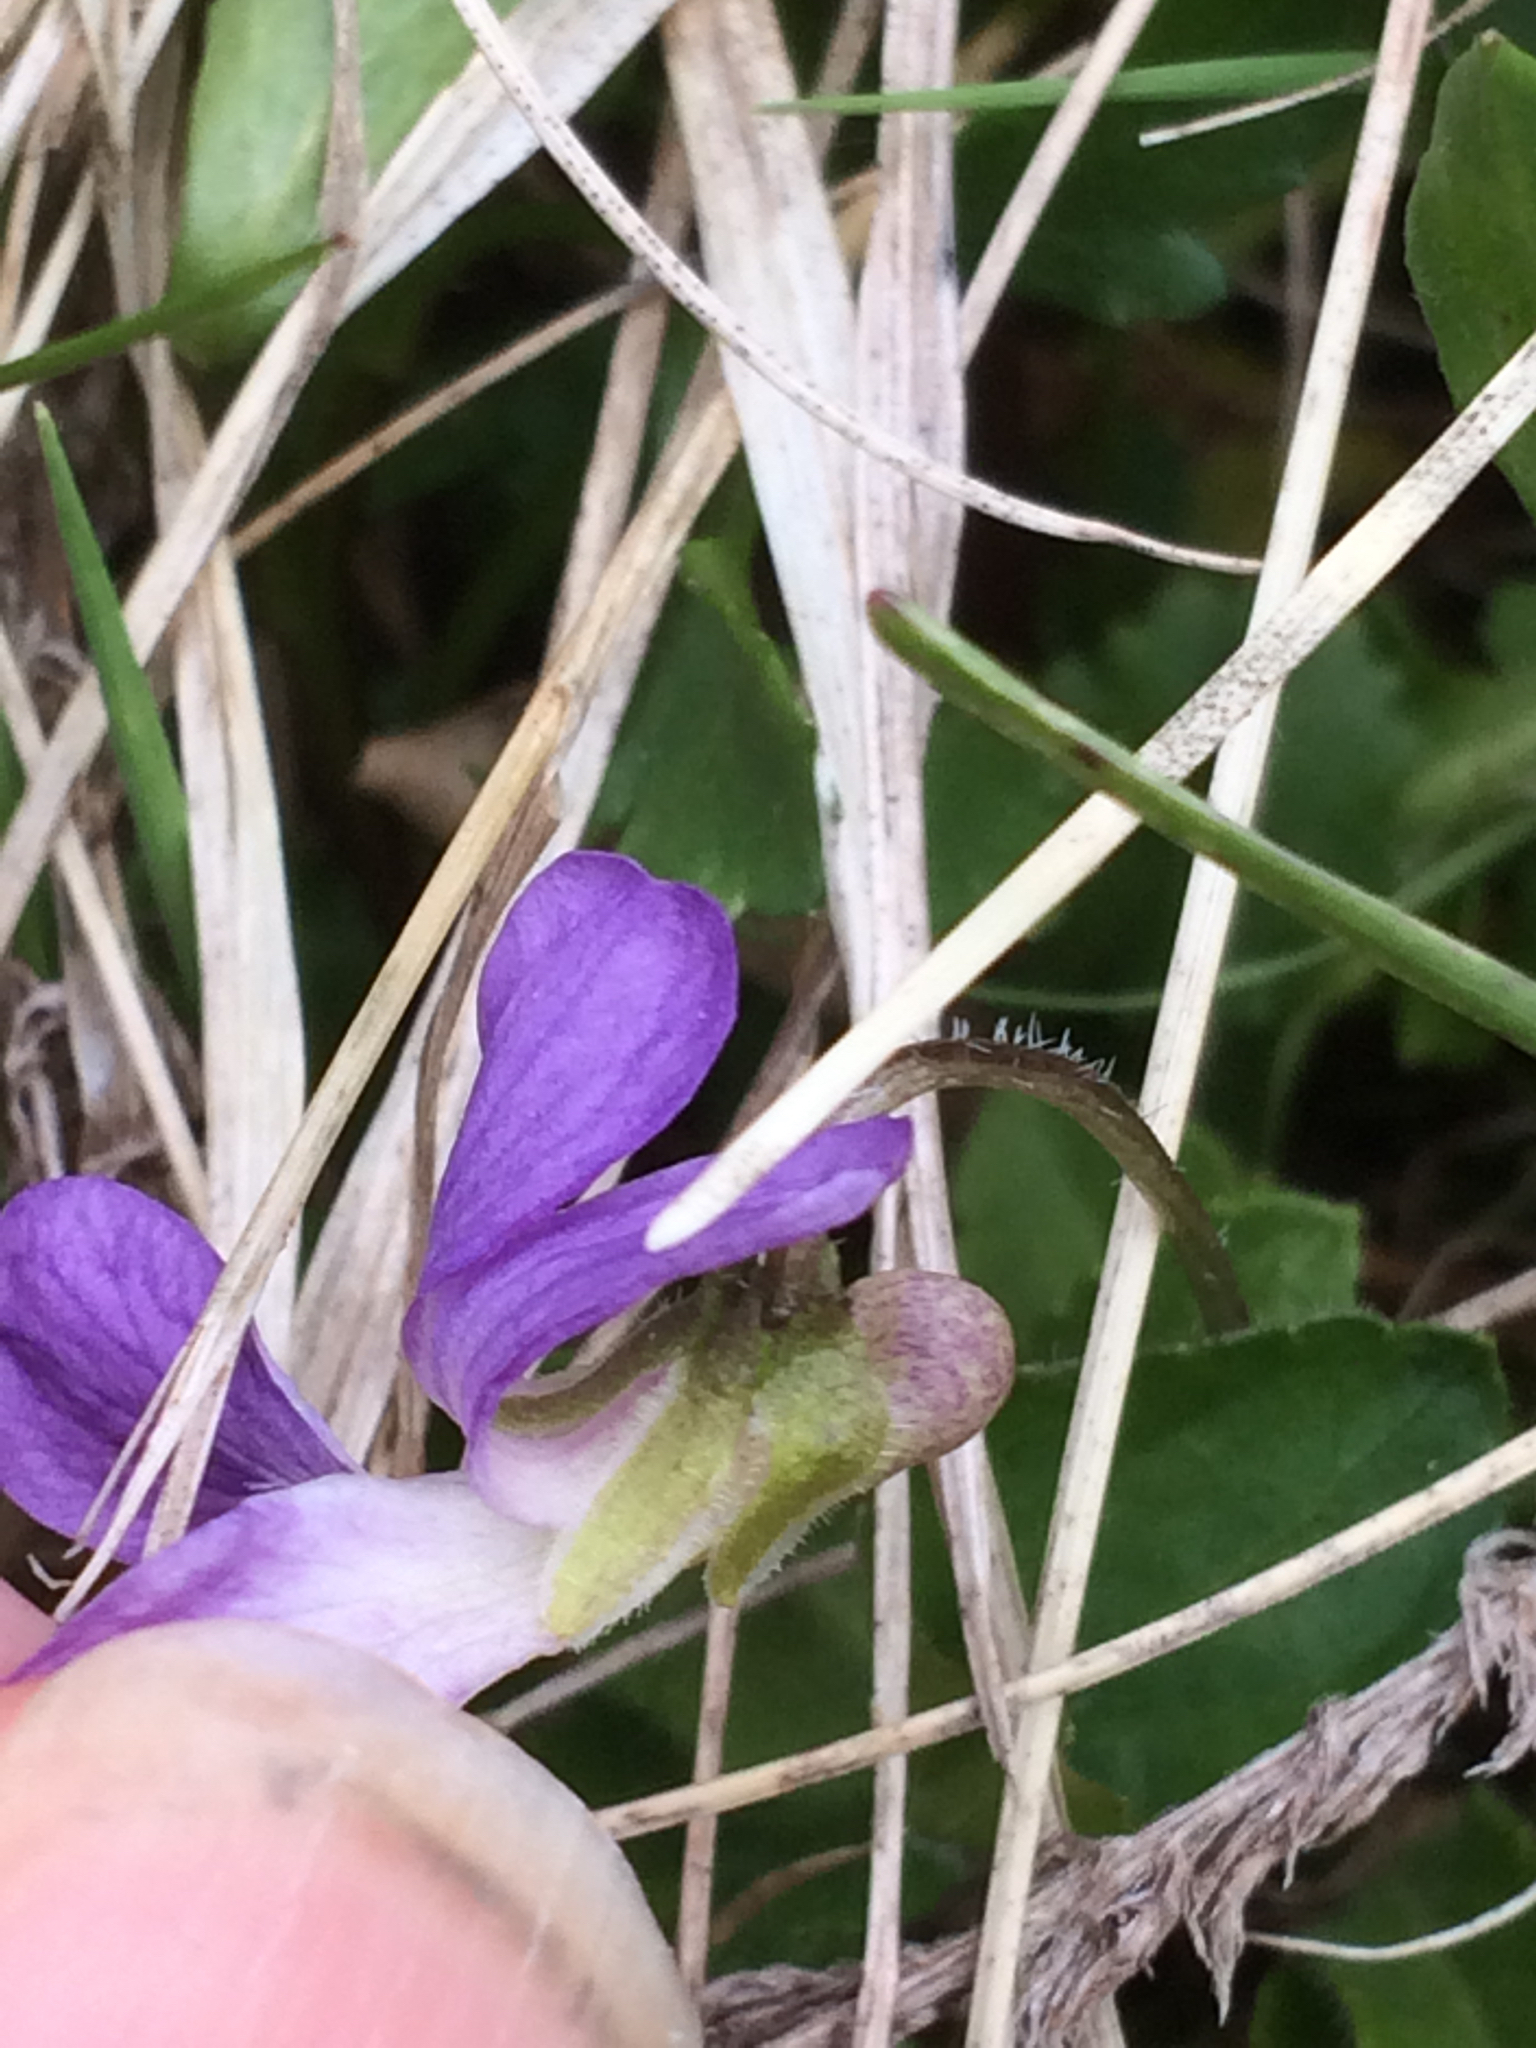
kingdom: Plantae
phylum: Tracheophyta
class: Magnoliopsida
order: Malpighiales
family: Violaceae
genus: Viola
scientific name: Viola sororia
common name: Dooryard violet
